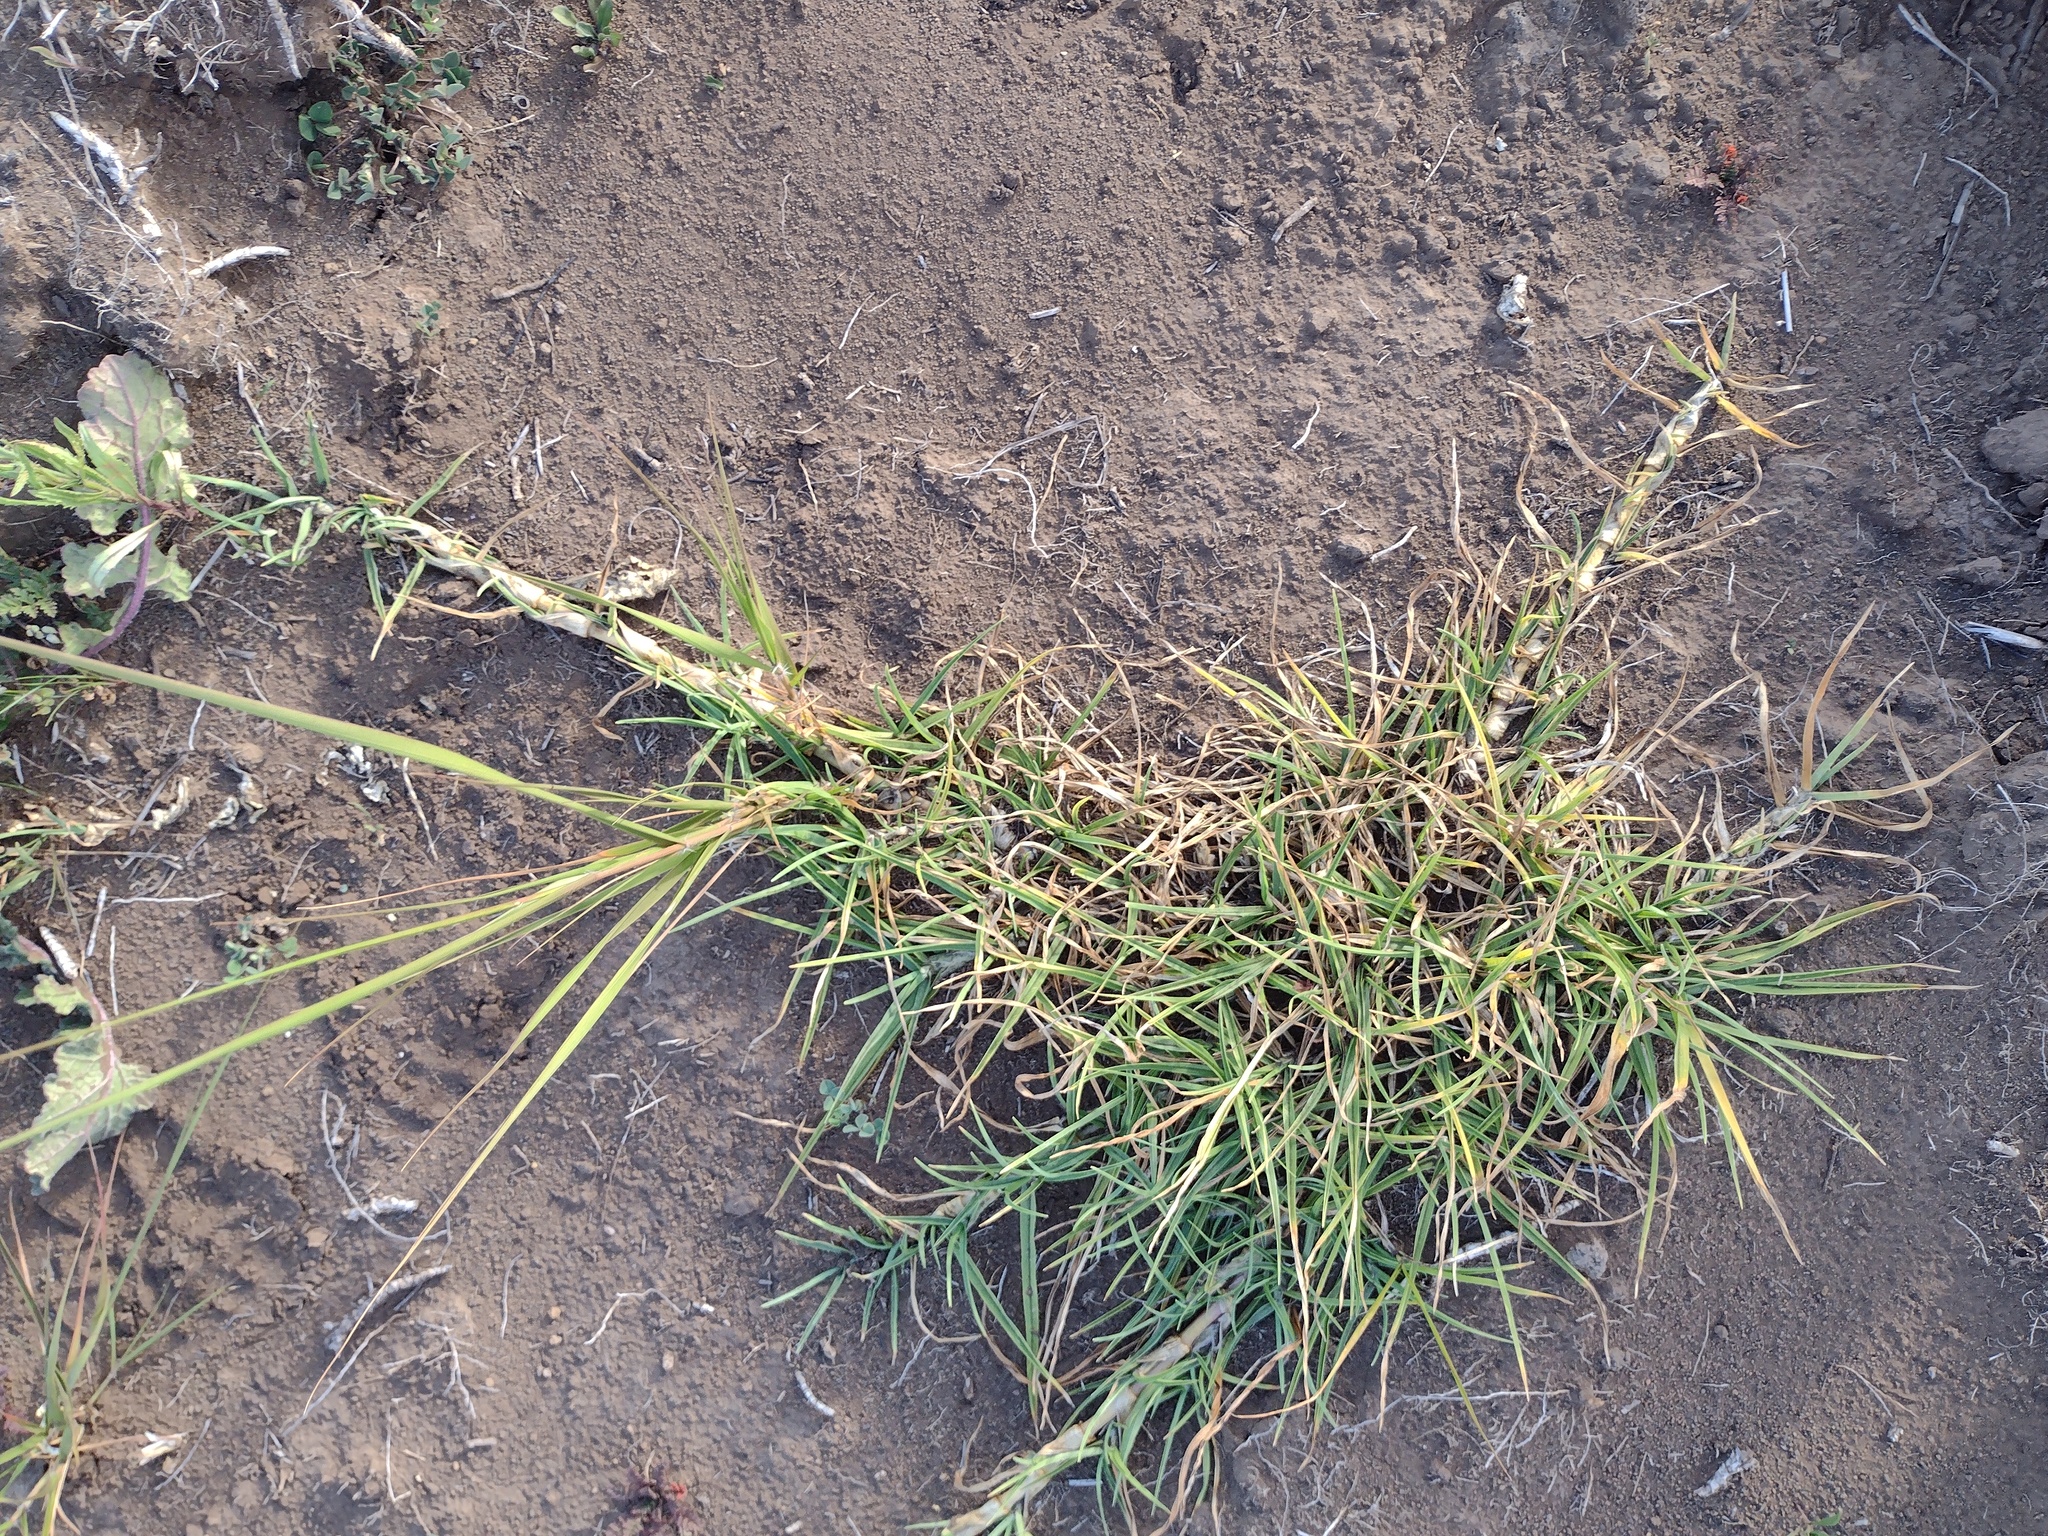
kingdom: Plantae
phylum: Tracheophyta
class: Liliopsida
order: Poales
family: Poaceae
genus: Cenchrus
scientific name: Cenchrus clandestinus
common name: Kikuyugrass
